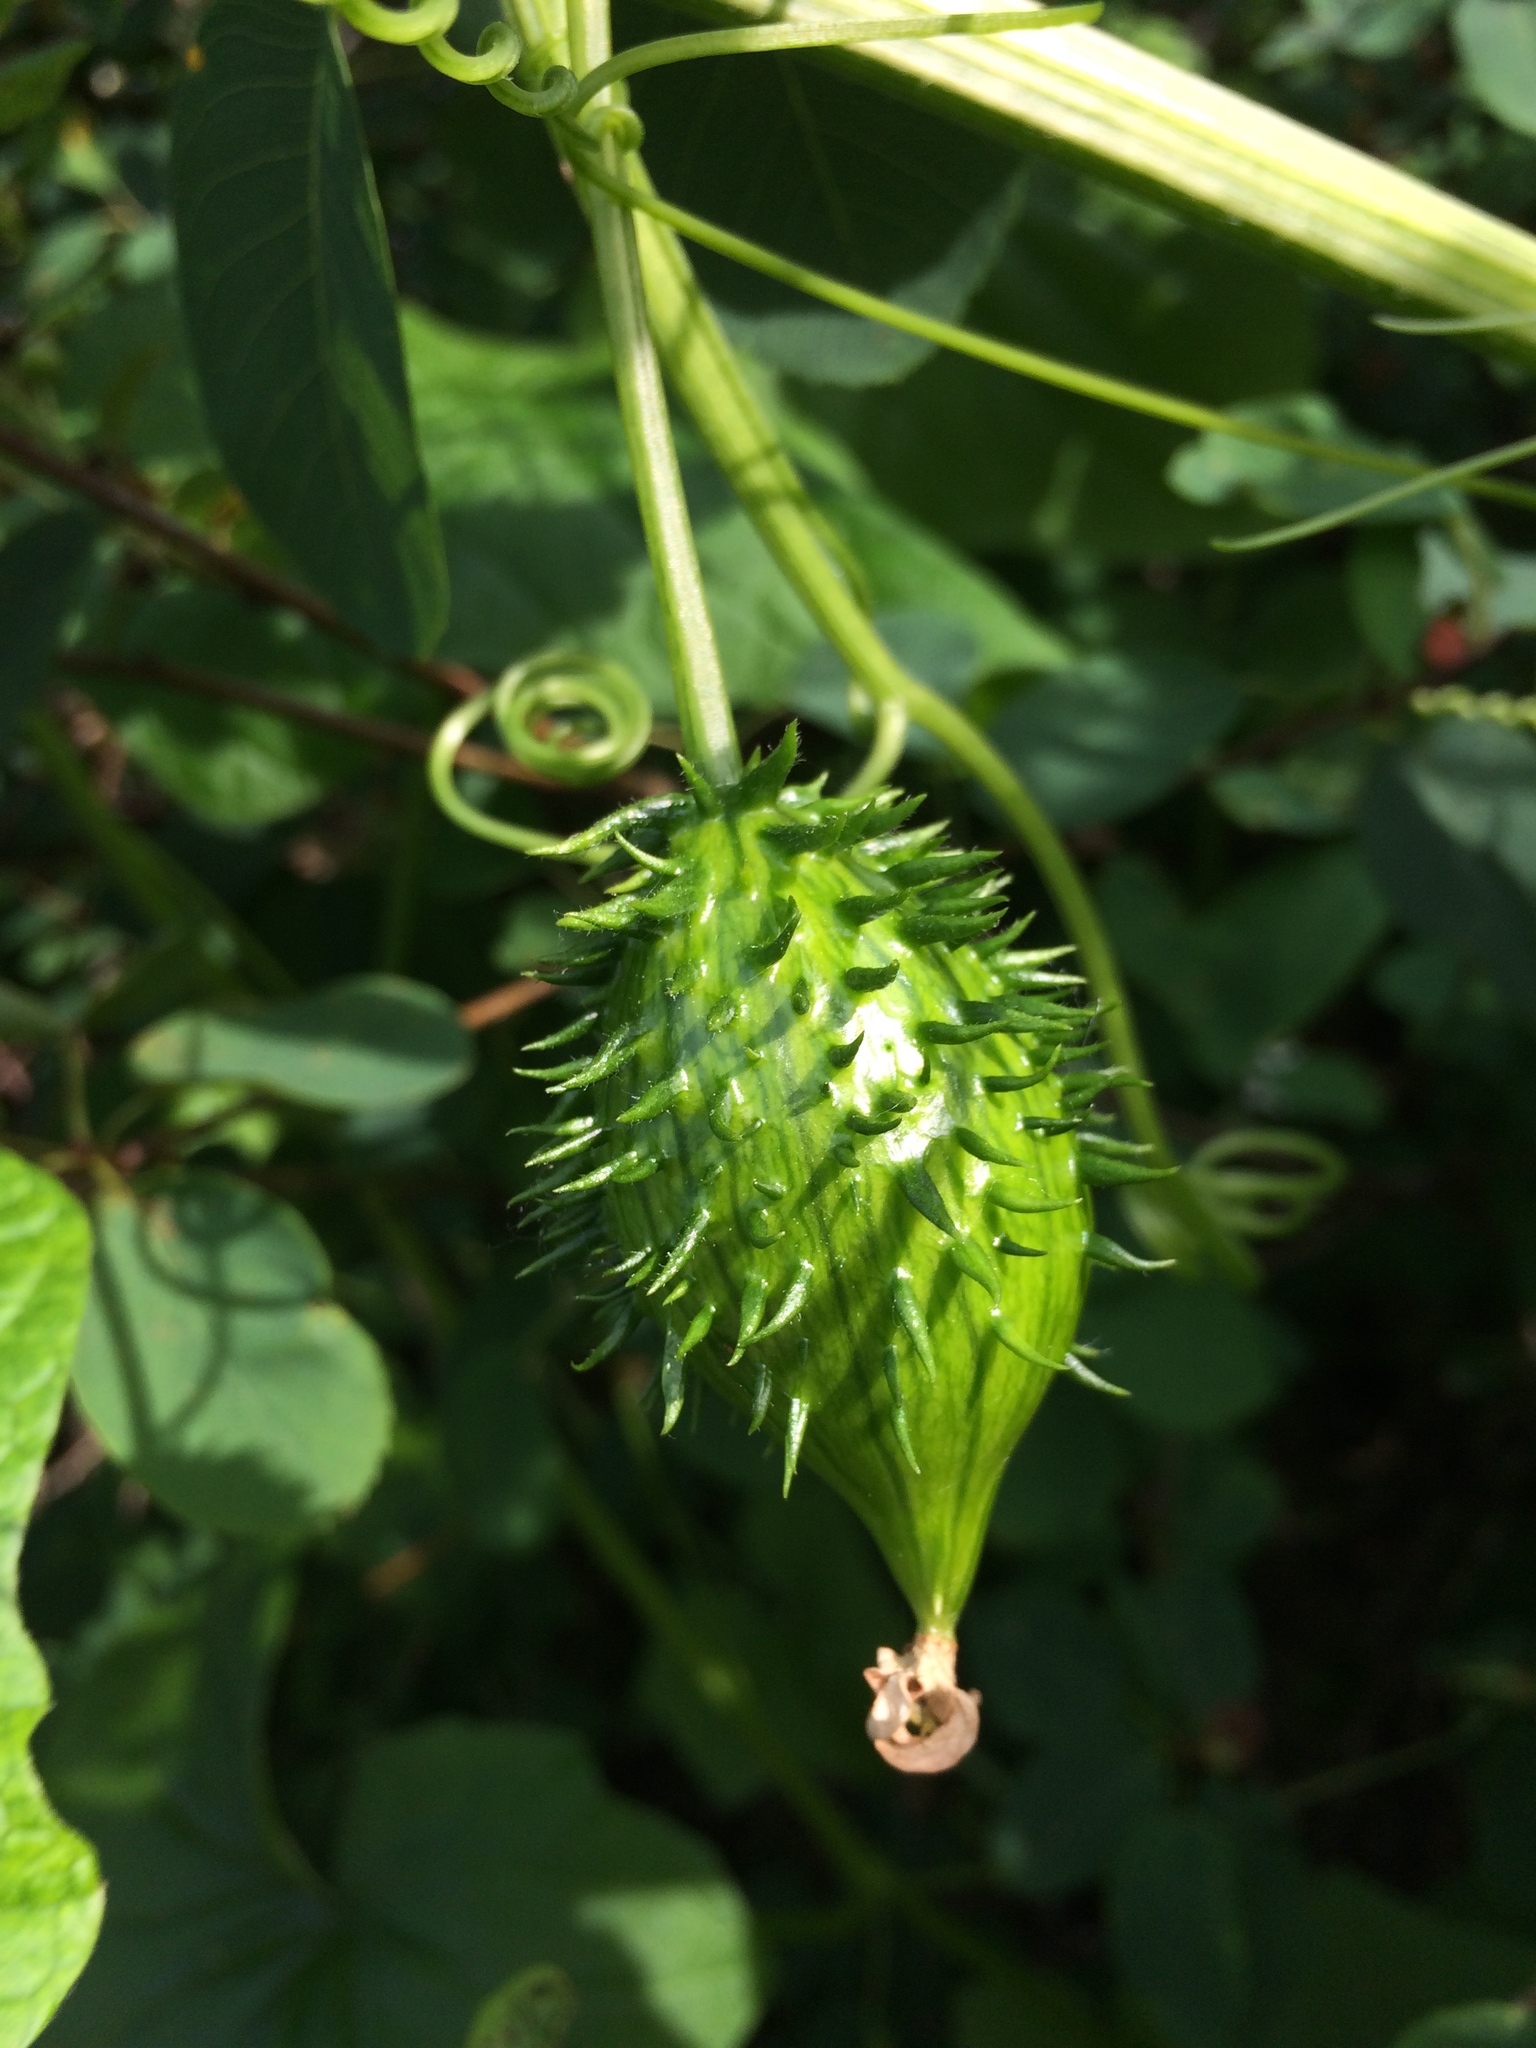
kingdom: Plantae
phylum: Tracheophyta
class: Magnoliopsida
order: Cucurbitales
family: Cucurbitaceae
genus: Marah
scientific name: Marah oregana
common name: Coastal manroot
